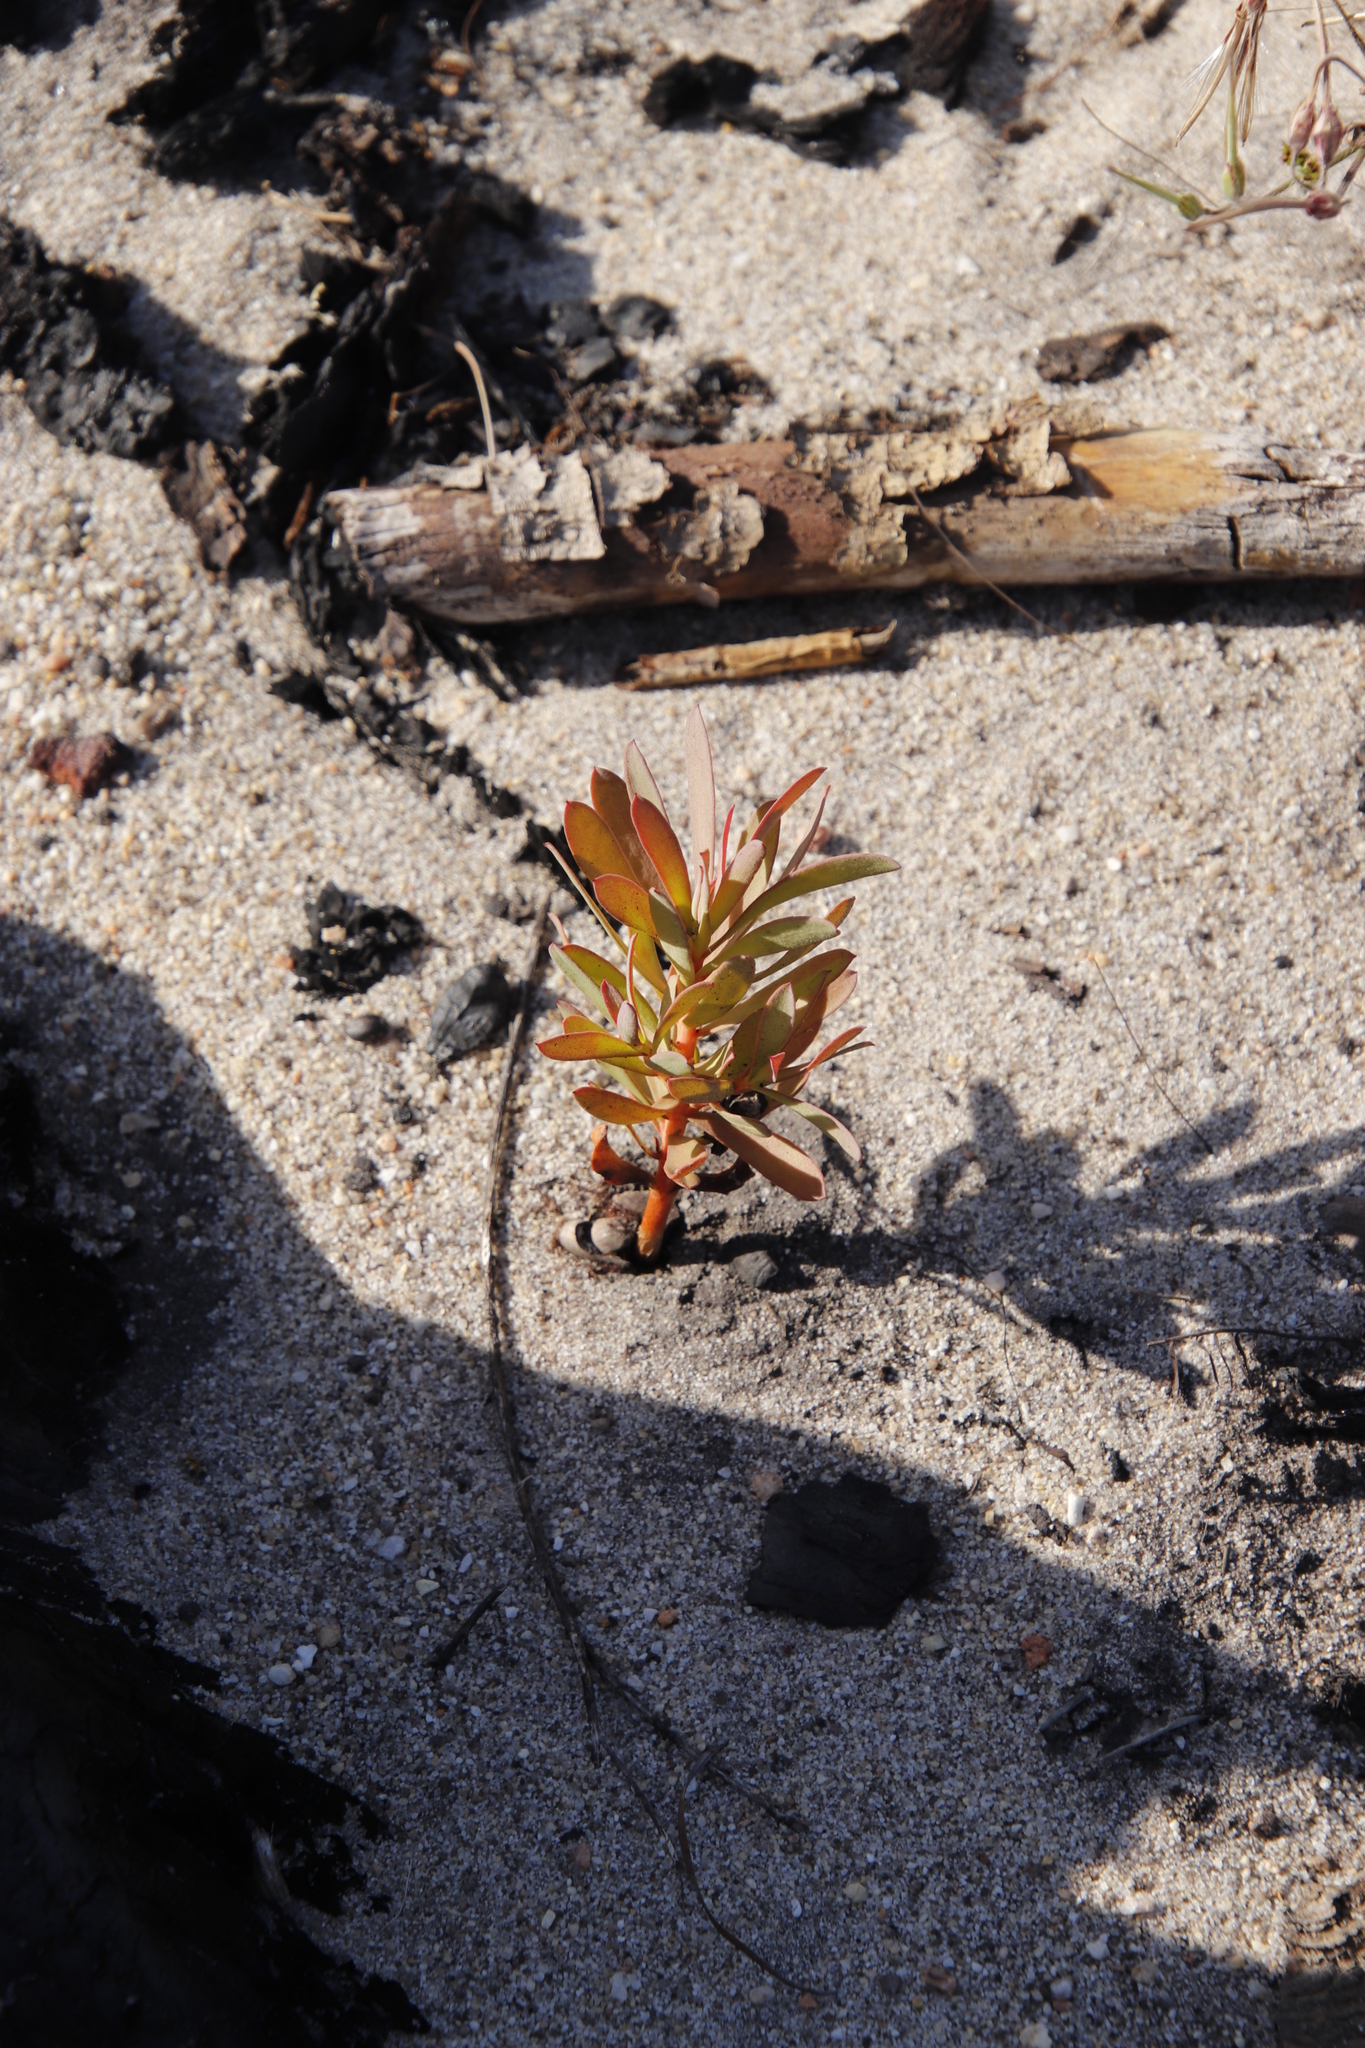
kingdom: Plantae
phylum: Tracheophyta
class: Magnoliopsida
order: Proteales
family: Proteaceae
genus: Protea
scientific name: Protea repens
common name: Sugarbush
